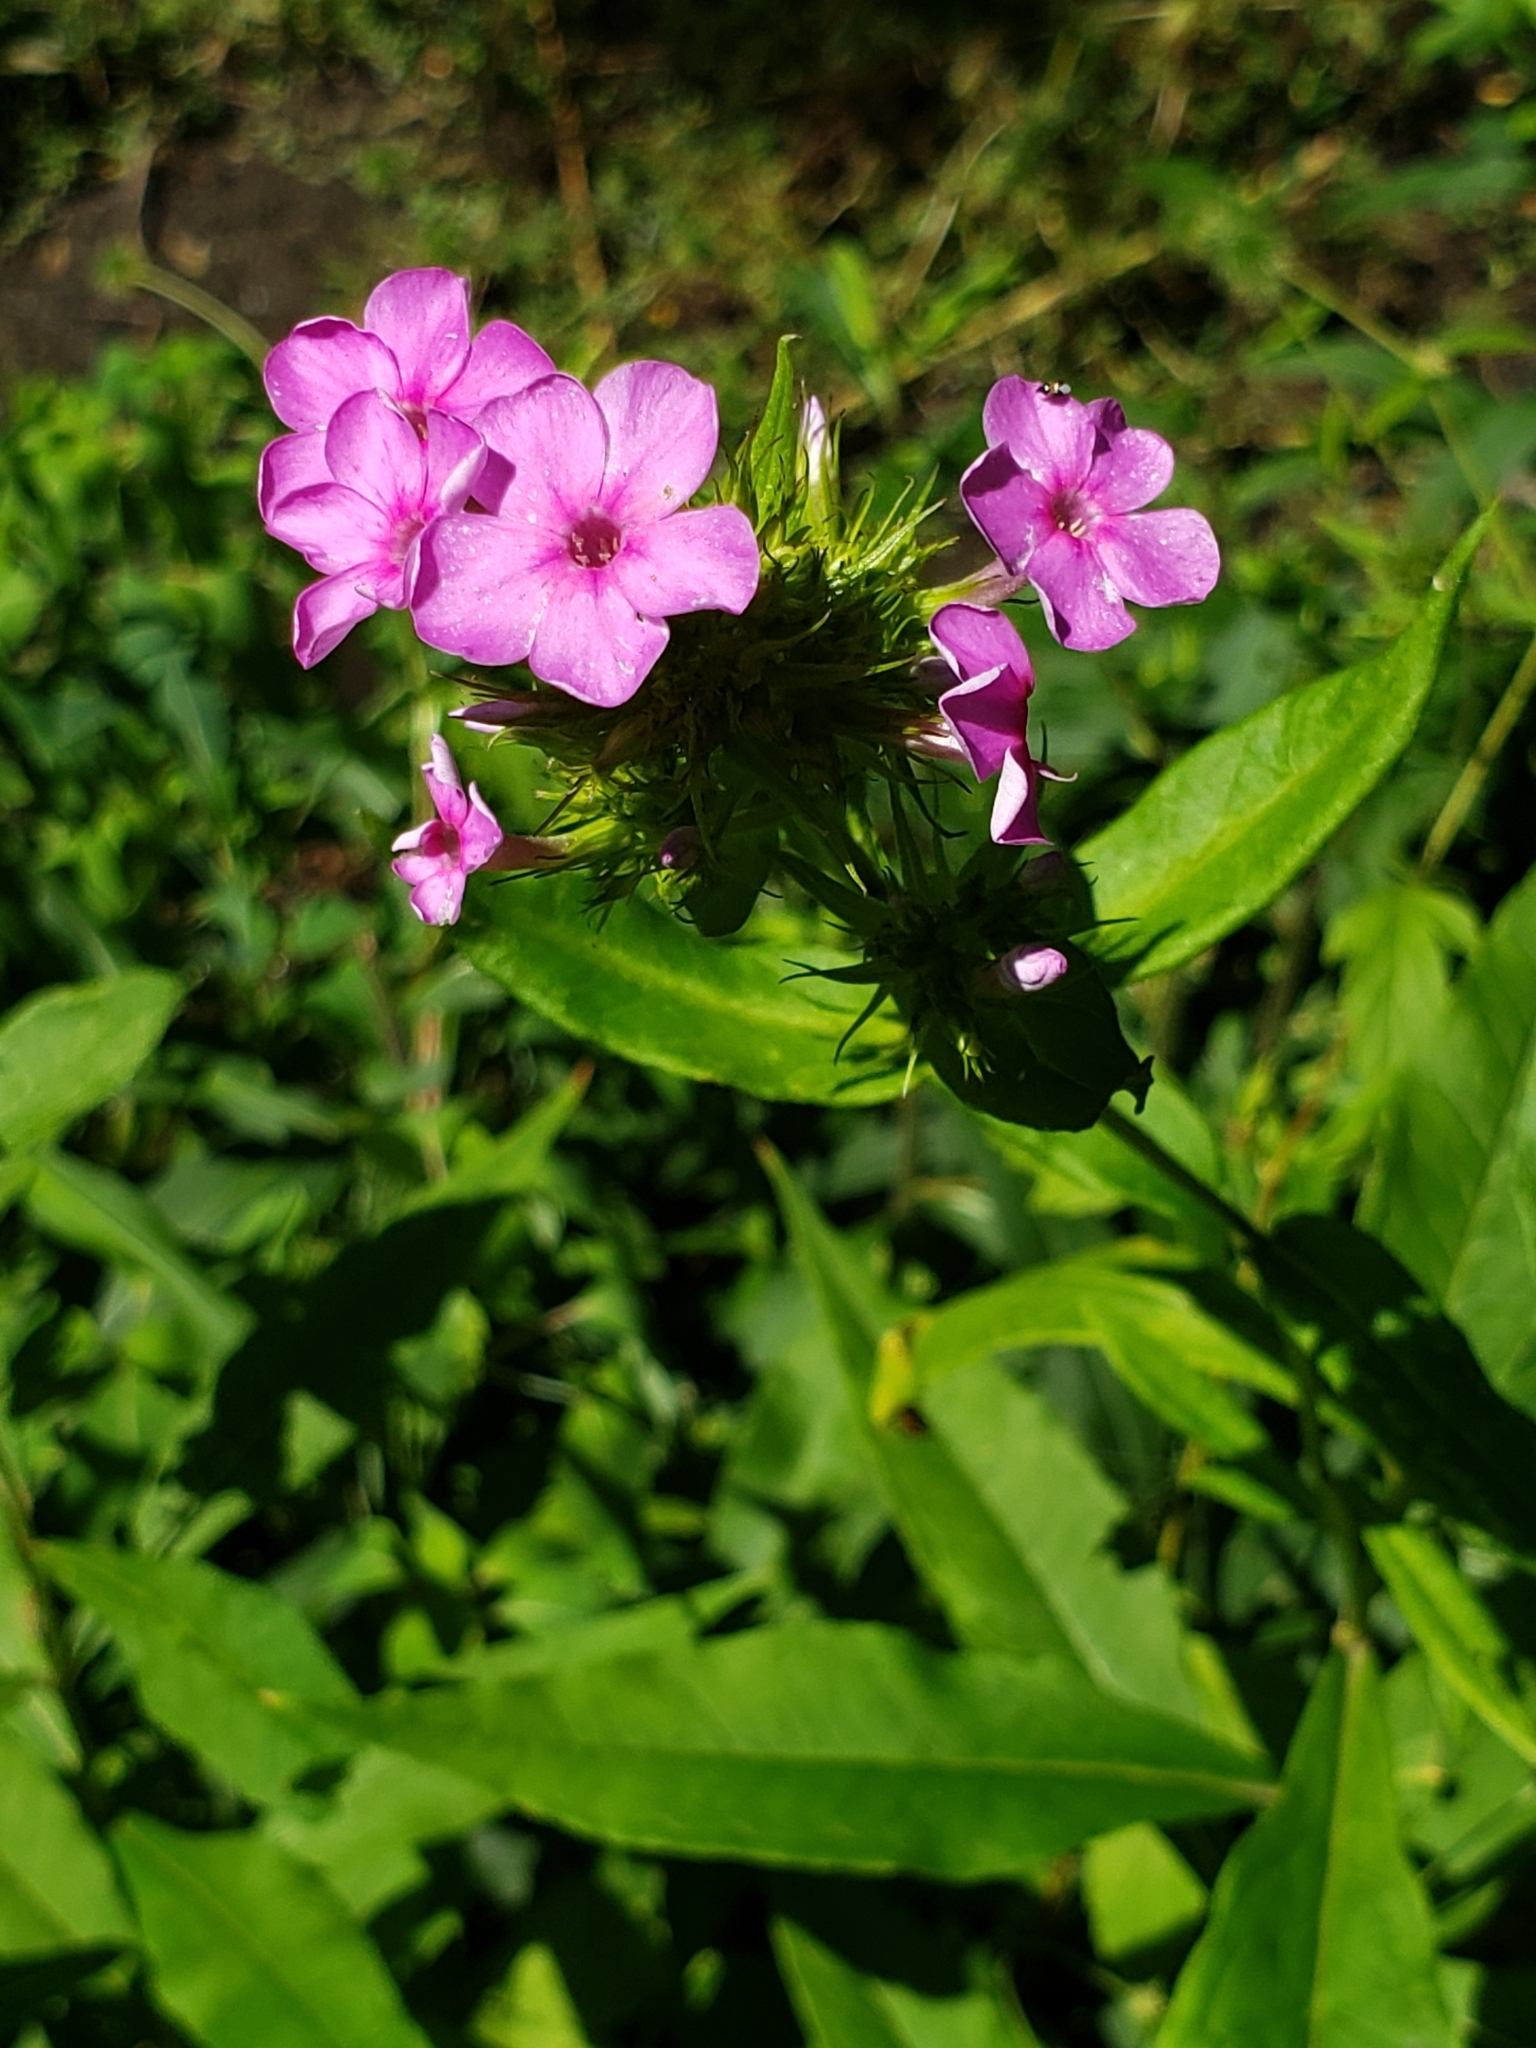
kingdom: Plantae
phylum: Tracheophyta
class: Magnoliopsida
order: Ericales
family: Polemoniaceae
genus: Phlox
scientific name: Phlox paniculata
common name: Fall phlox
